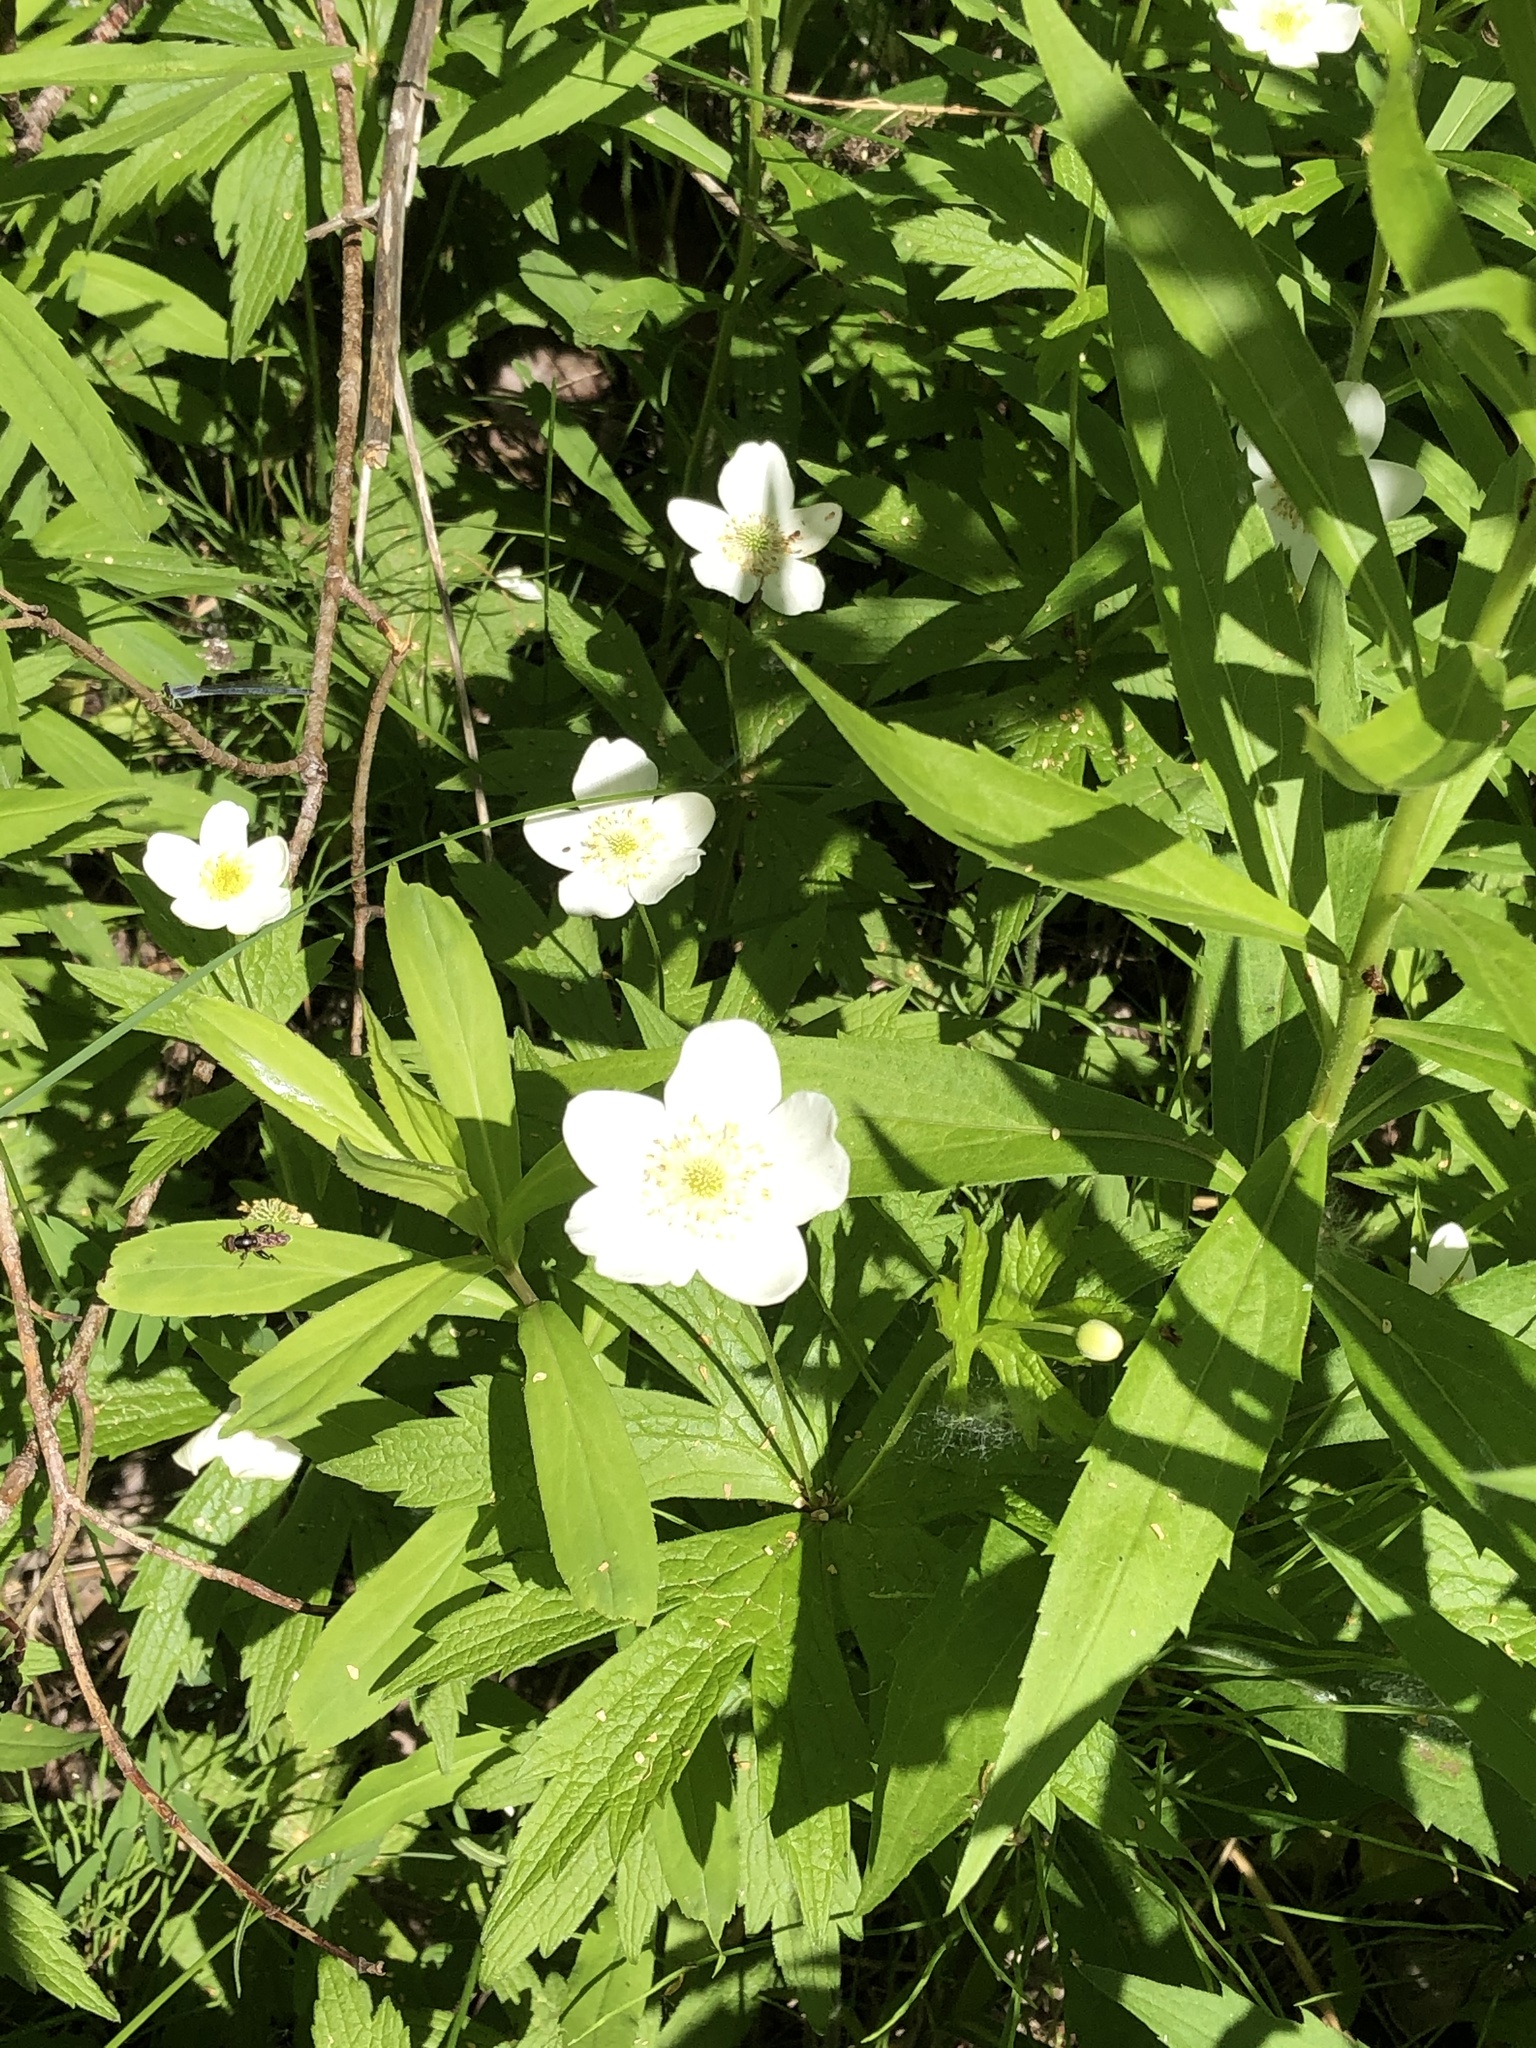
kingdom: Plantae
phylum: Tracheophyta
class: Magnoliopsida
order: Ranunculales
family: Ranunculaceae
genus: Anemonastrum
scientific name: Anemonastrum canadense
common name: Canada anemone
